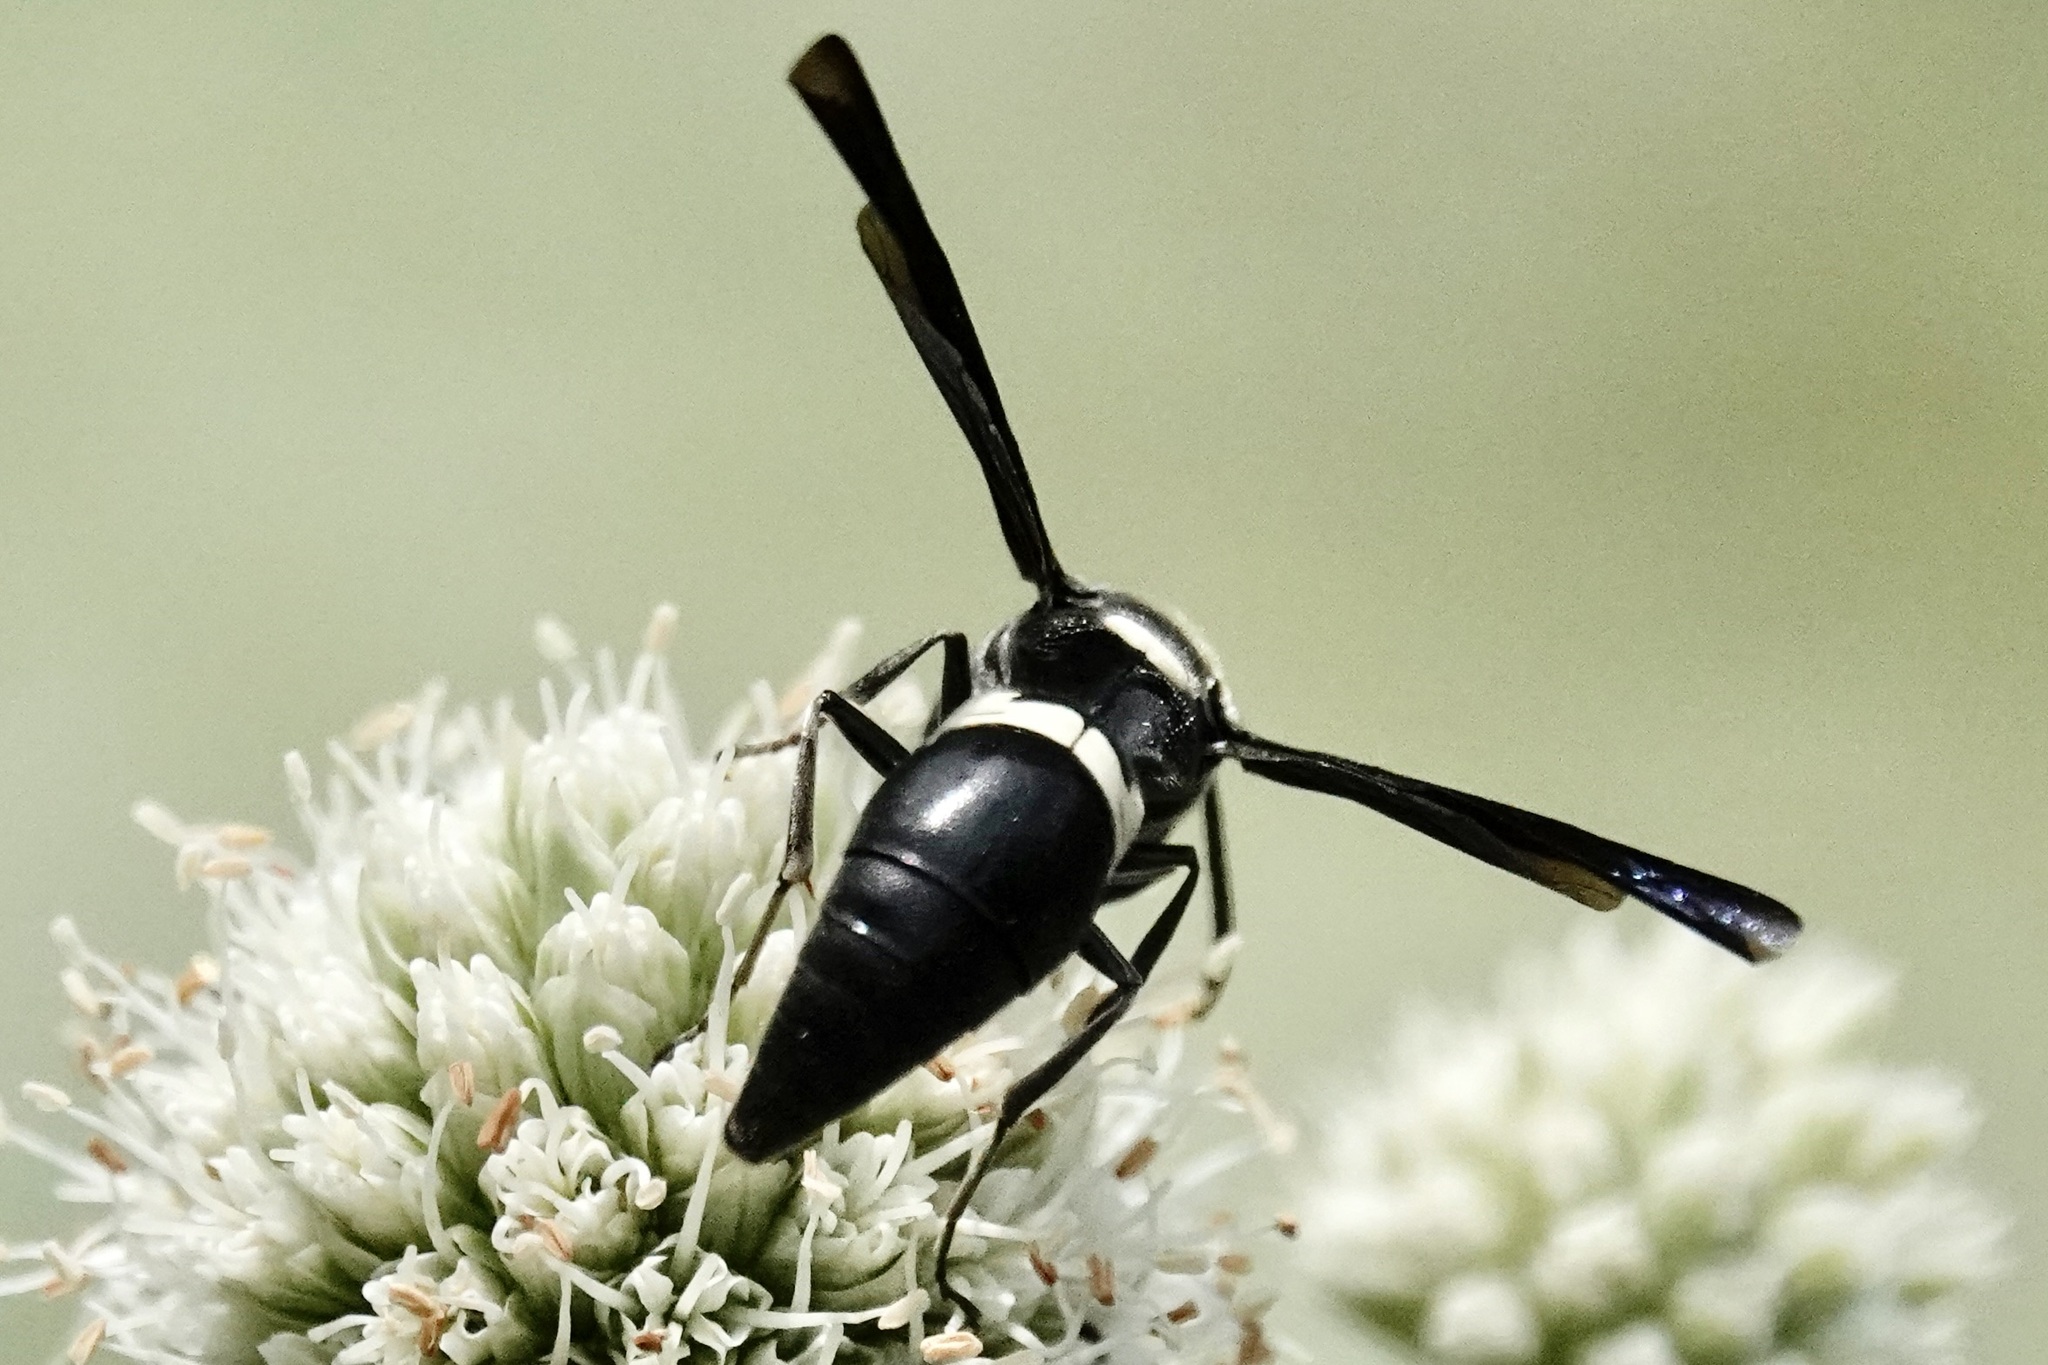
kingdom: Animalia
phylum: Arthropoda
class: Insecta
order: Hymenoptera
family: Eumenidae
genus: Monobia
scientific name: Monobia quadridens
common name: Four-toothed mason wasp
